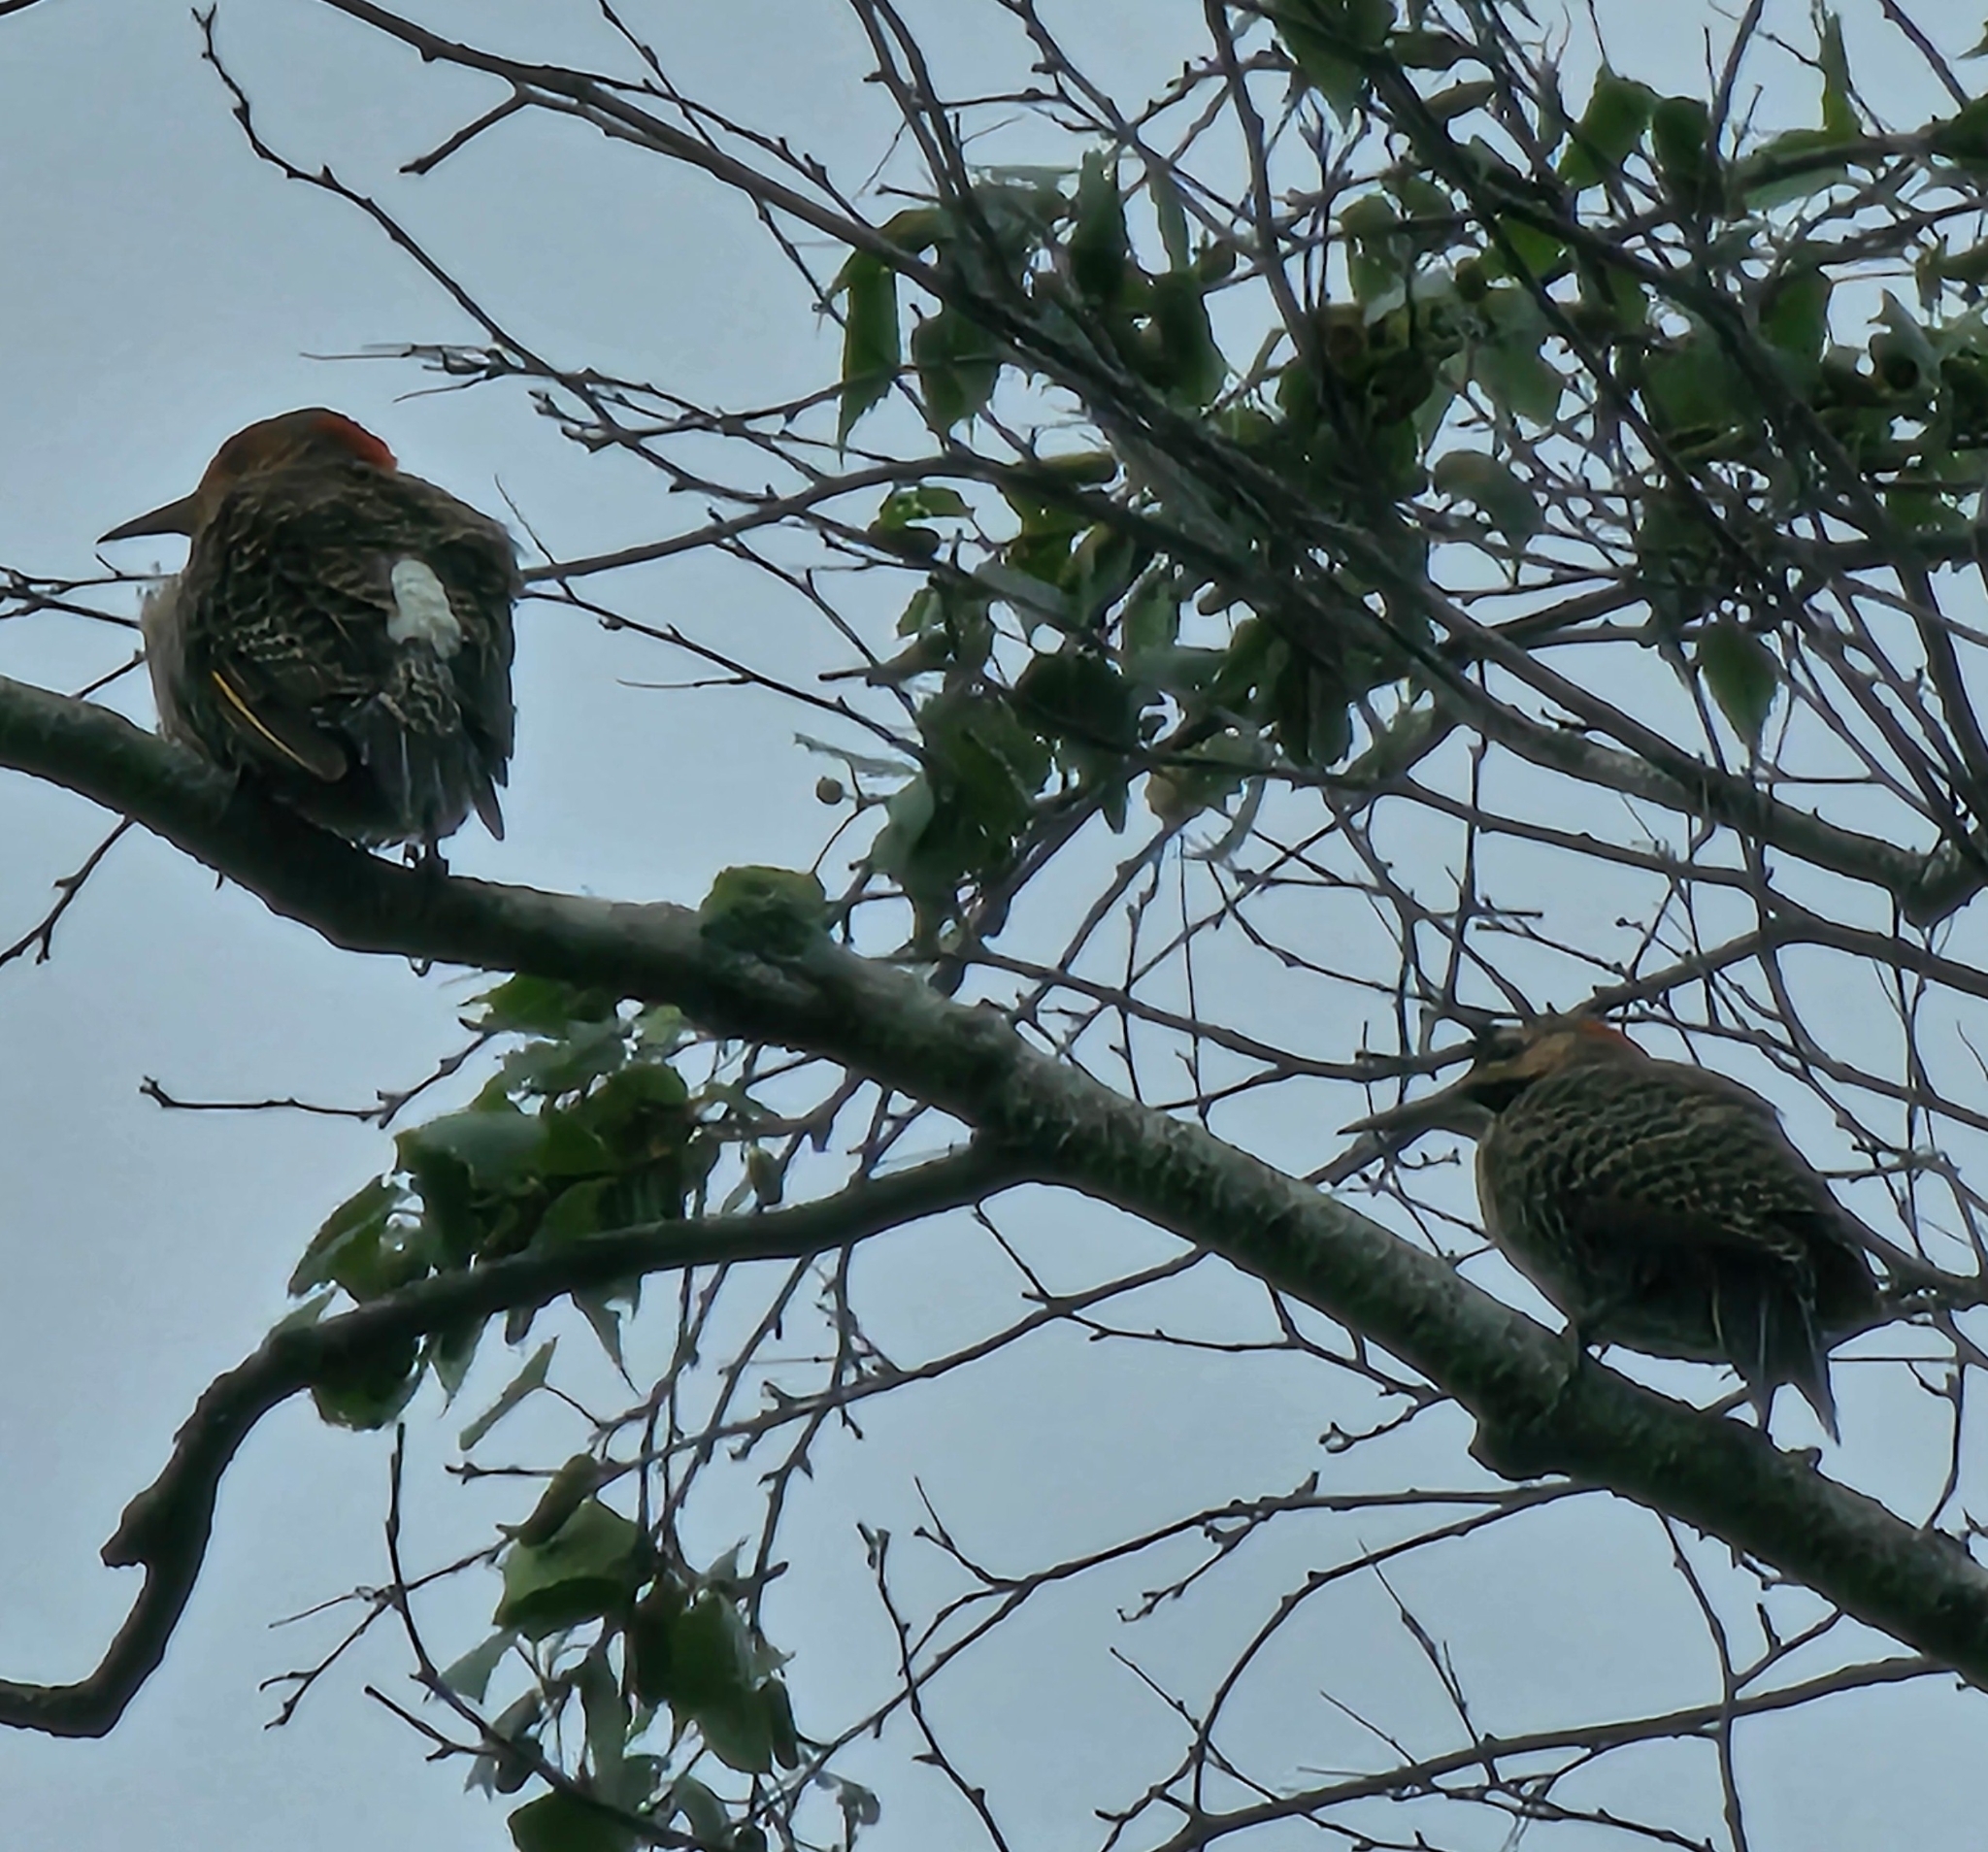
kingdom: Animalia
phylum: Chordata
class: Aves
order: Piciformes
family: Picidae
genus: Colaptes
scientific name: Colaptes auratus
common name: Northern flicker
